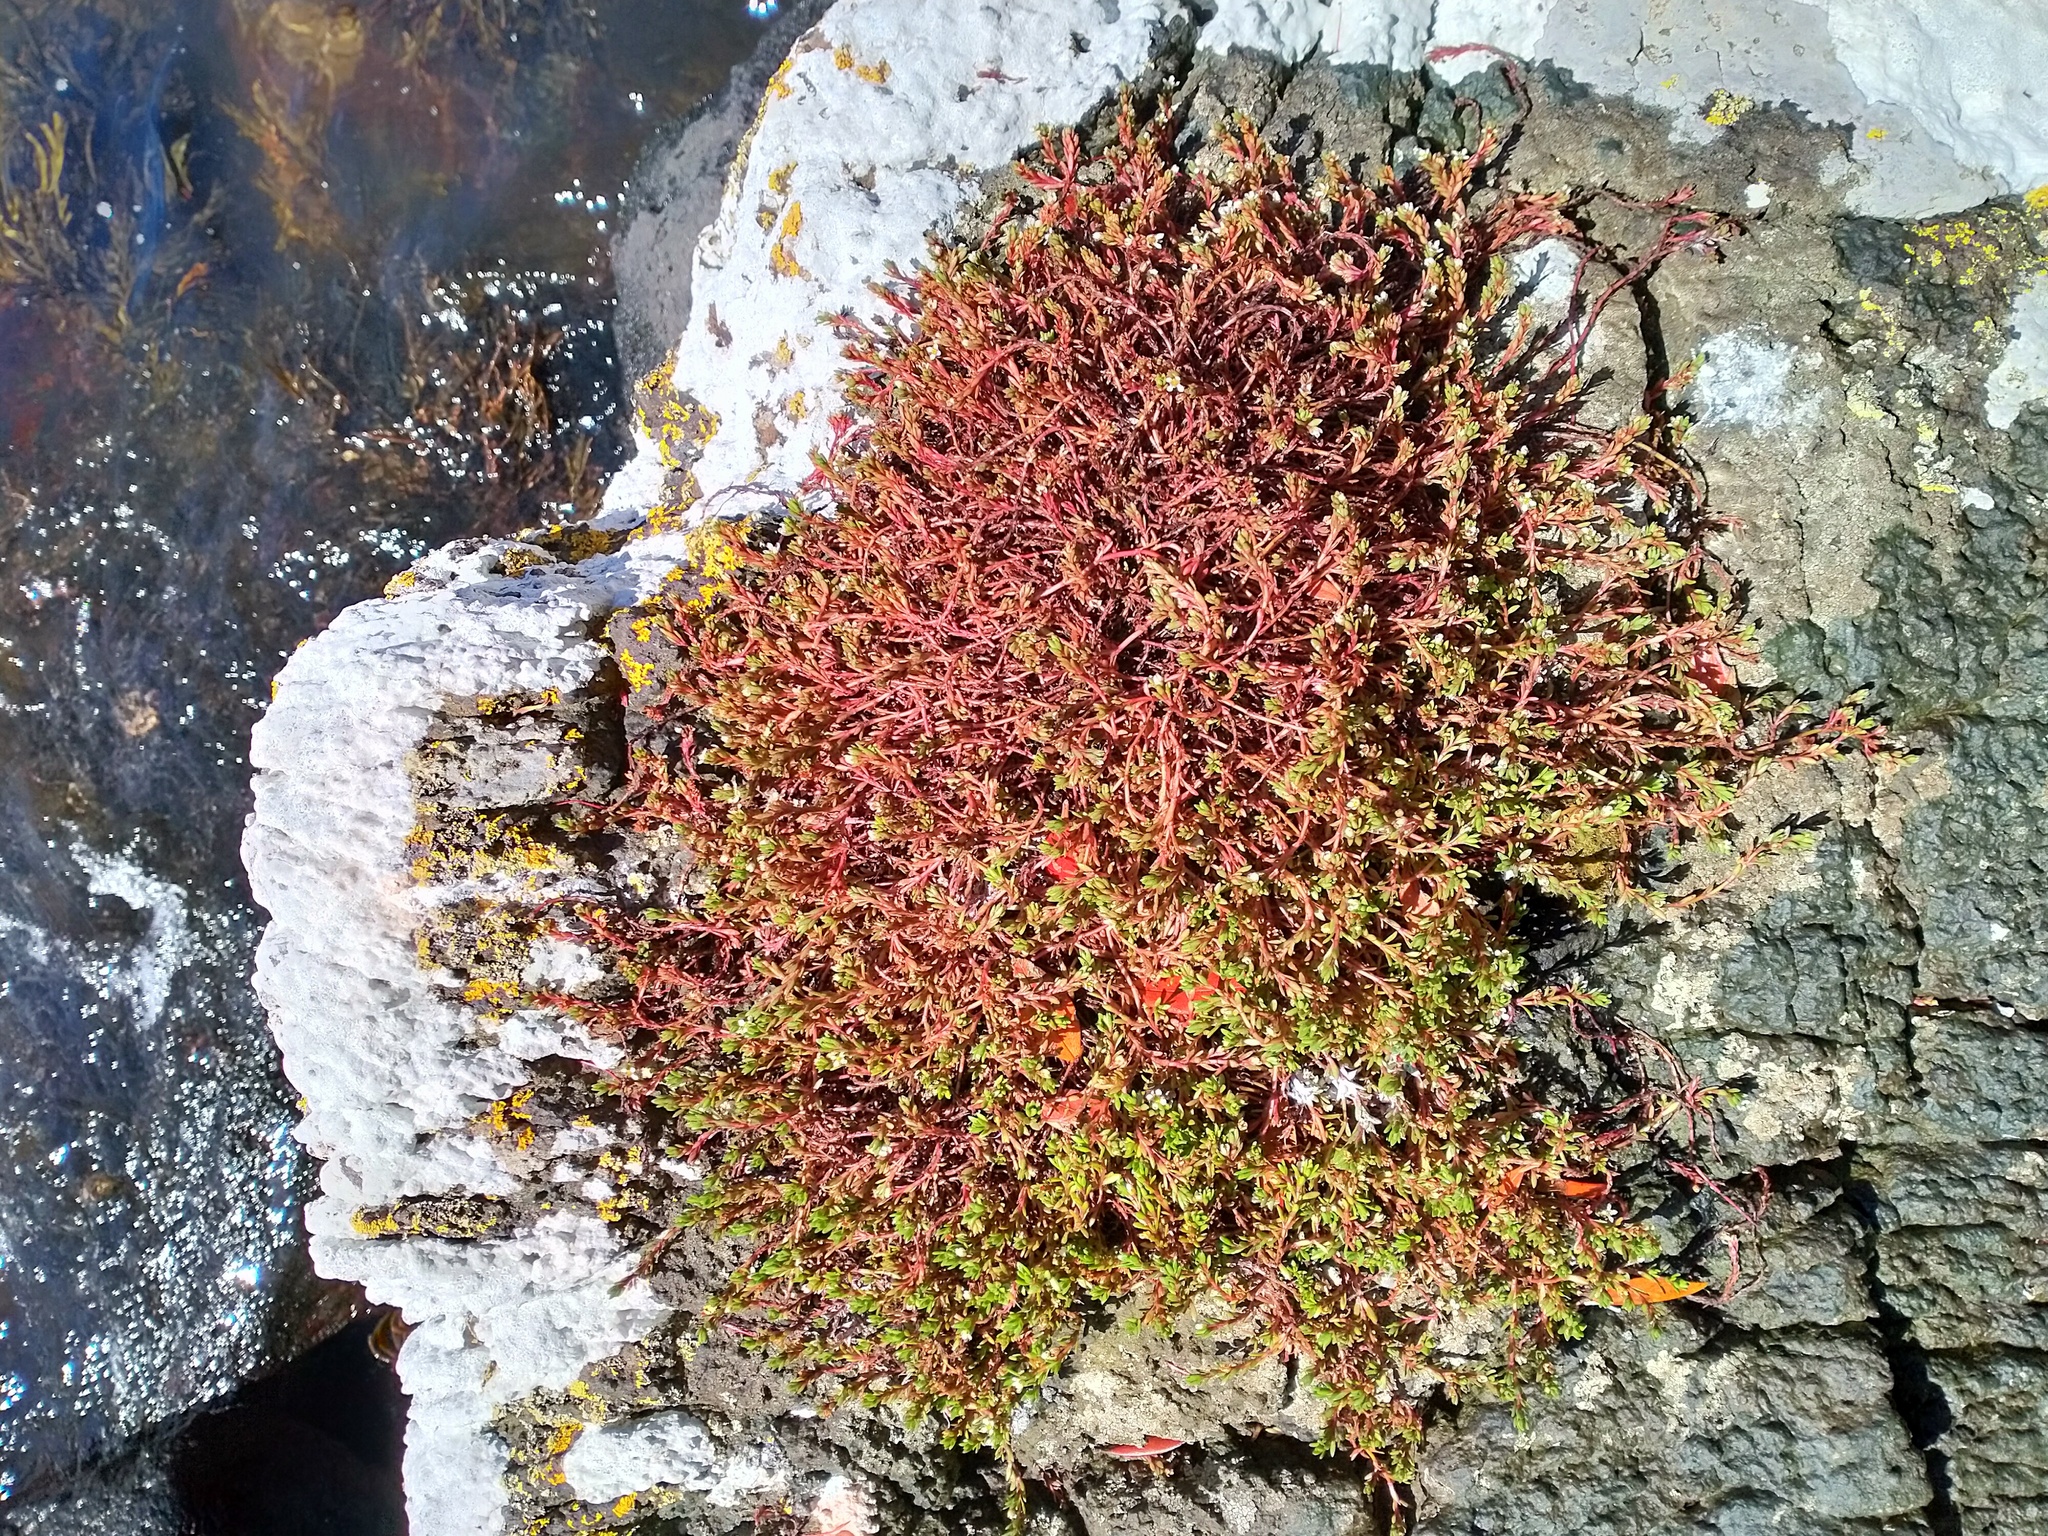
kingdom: Plantae
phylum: Tracheophyta
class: Magnoliopsida
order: Saxifragales
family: Crassulaceae
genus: Crassula
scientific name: Crassula moschata
